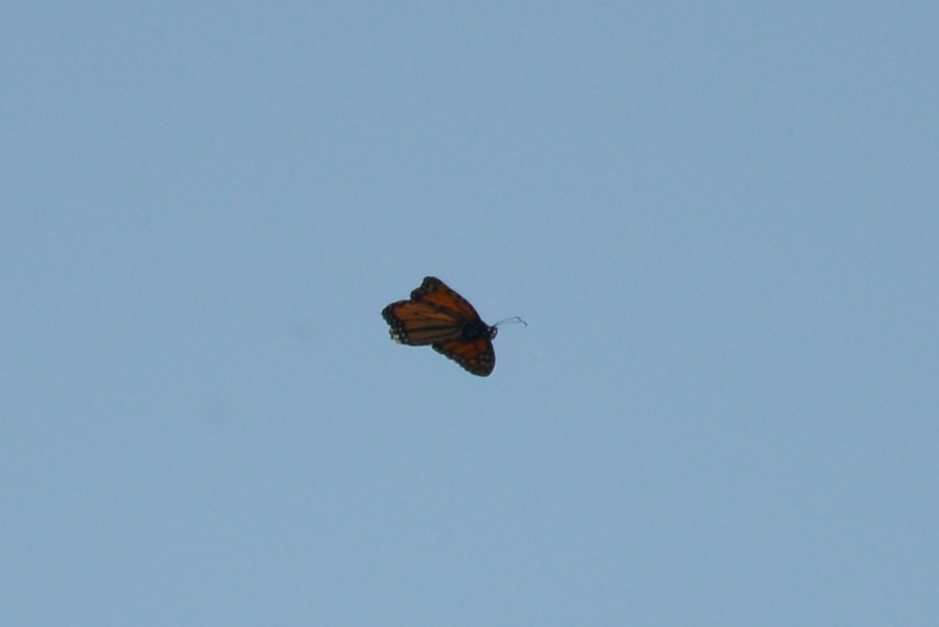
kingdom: Animalia
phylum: Arthropoda
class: Insecta
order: Lepidoptera
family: Nymphalidae
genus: Danaus
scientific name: Danaus plexippus
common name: Monarch
